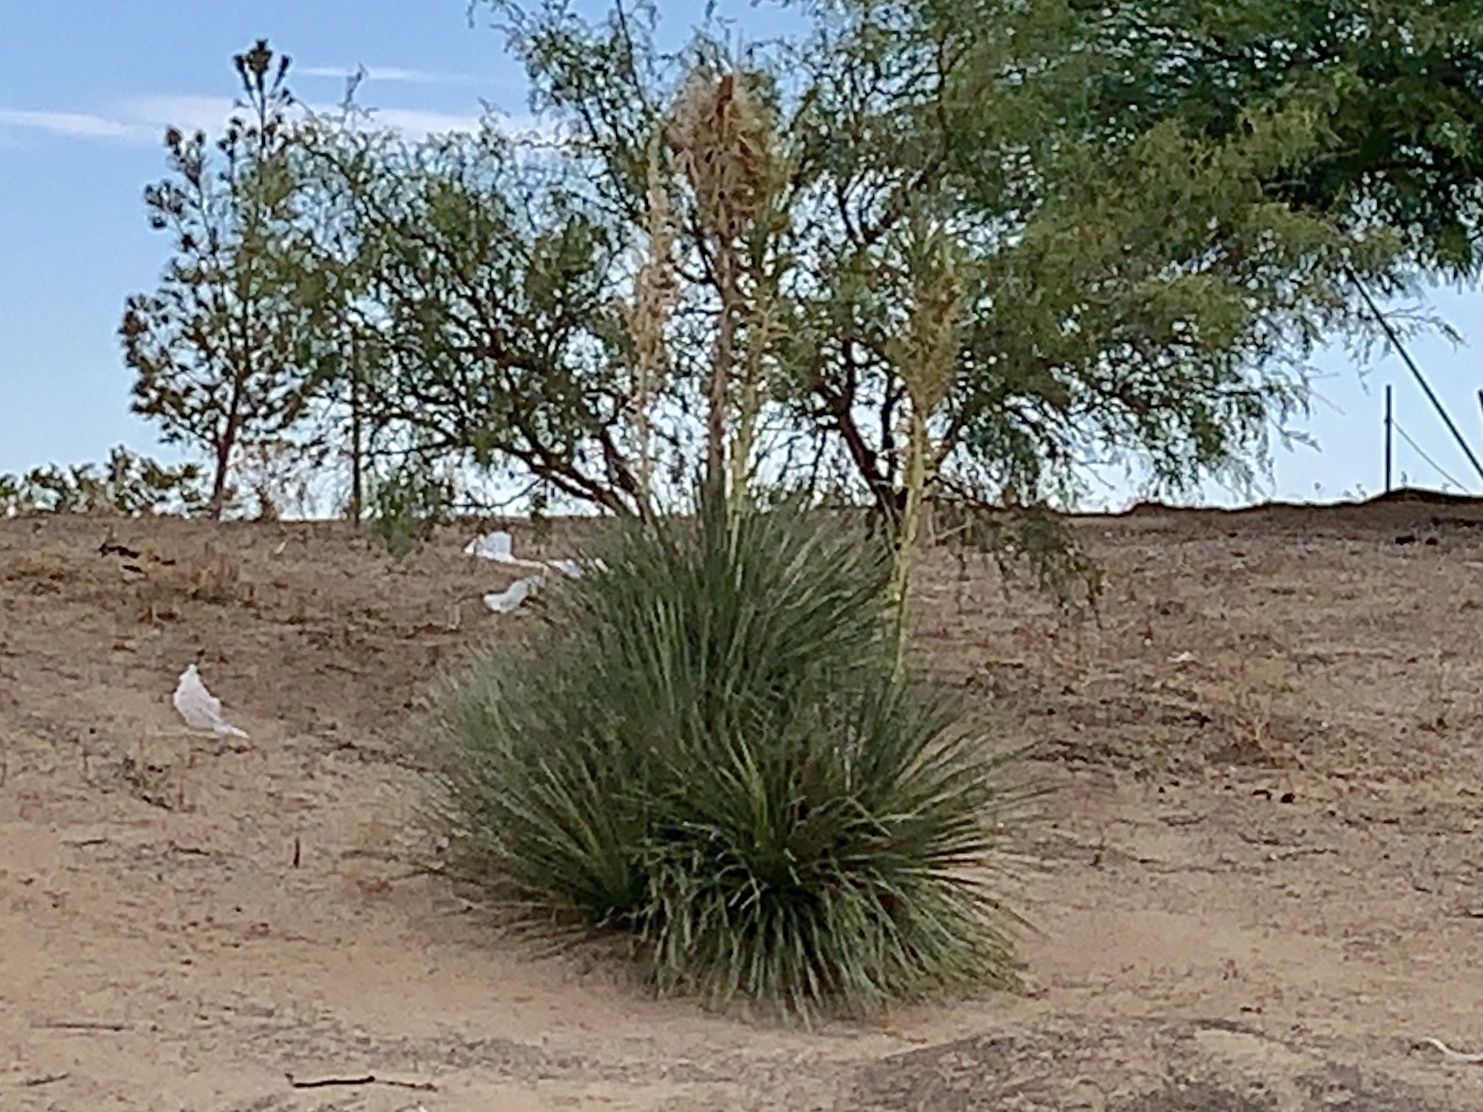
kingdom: Plantae
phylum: Tracheophyta
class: Liliopsida
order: Asparagales
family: Asparagaceae
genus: Yucca
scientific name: Yucca elata
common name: Palmella
